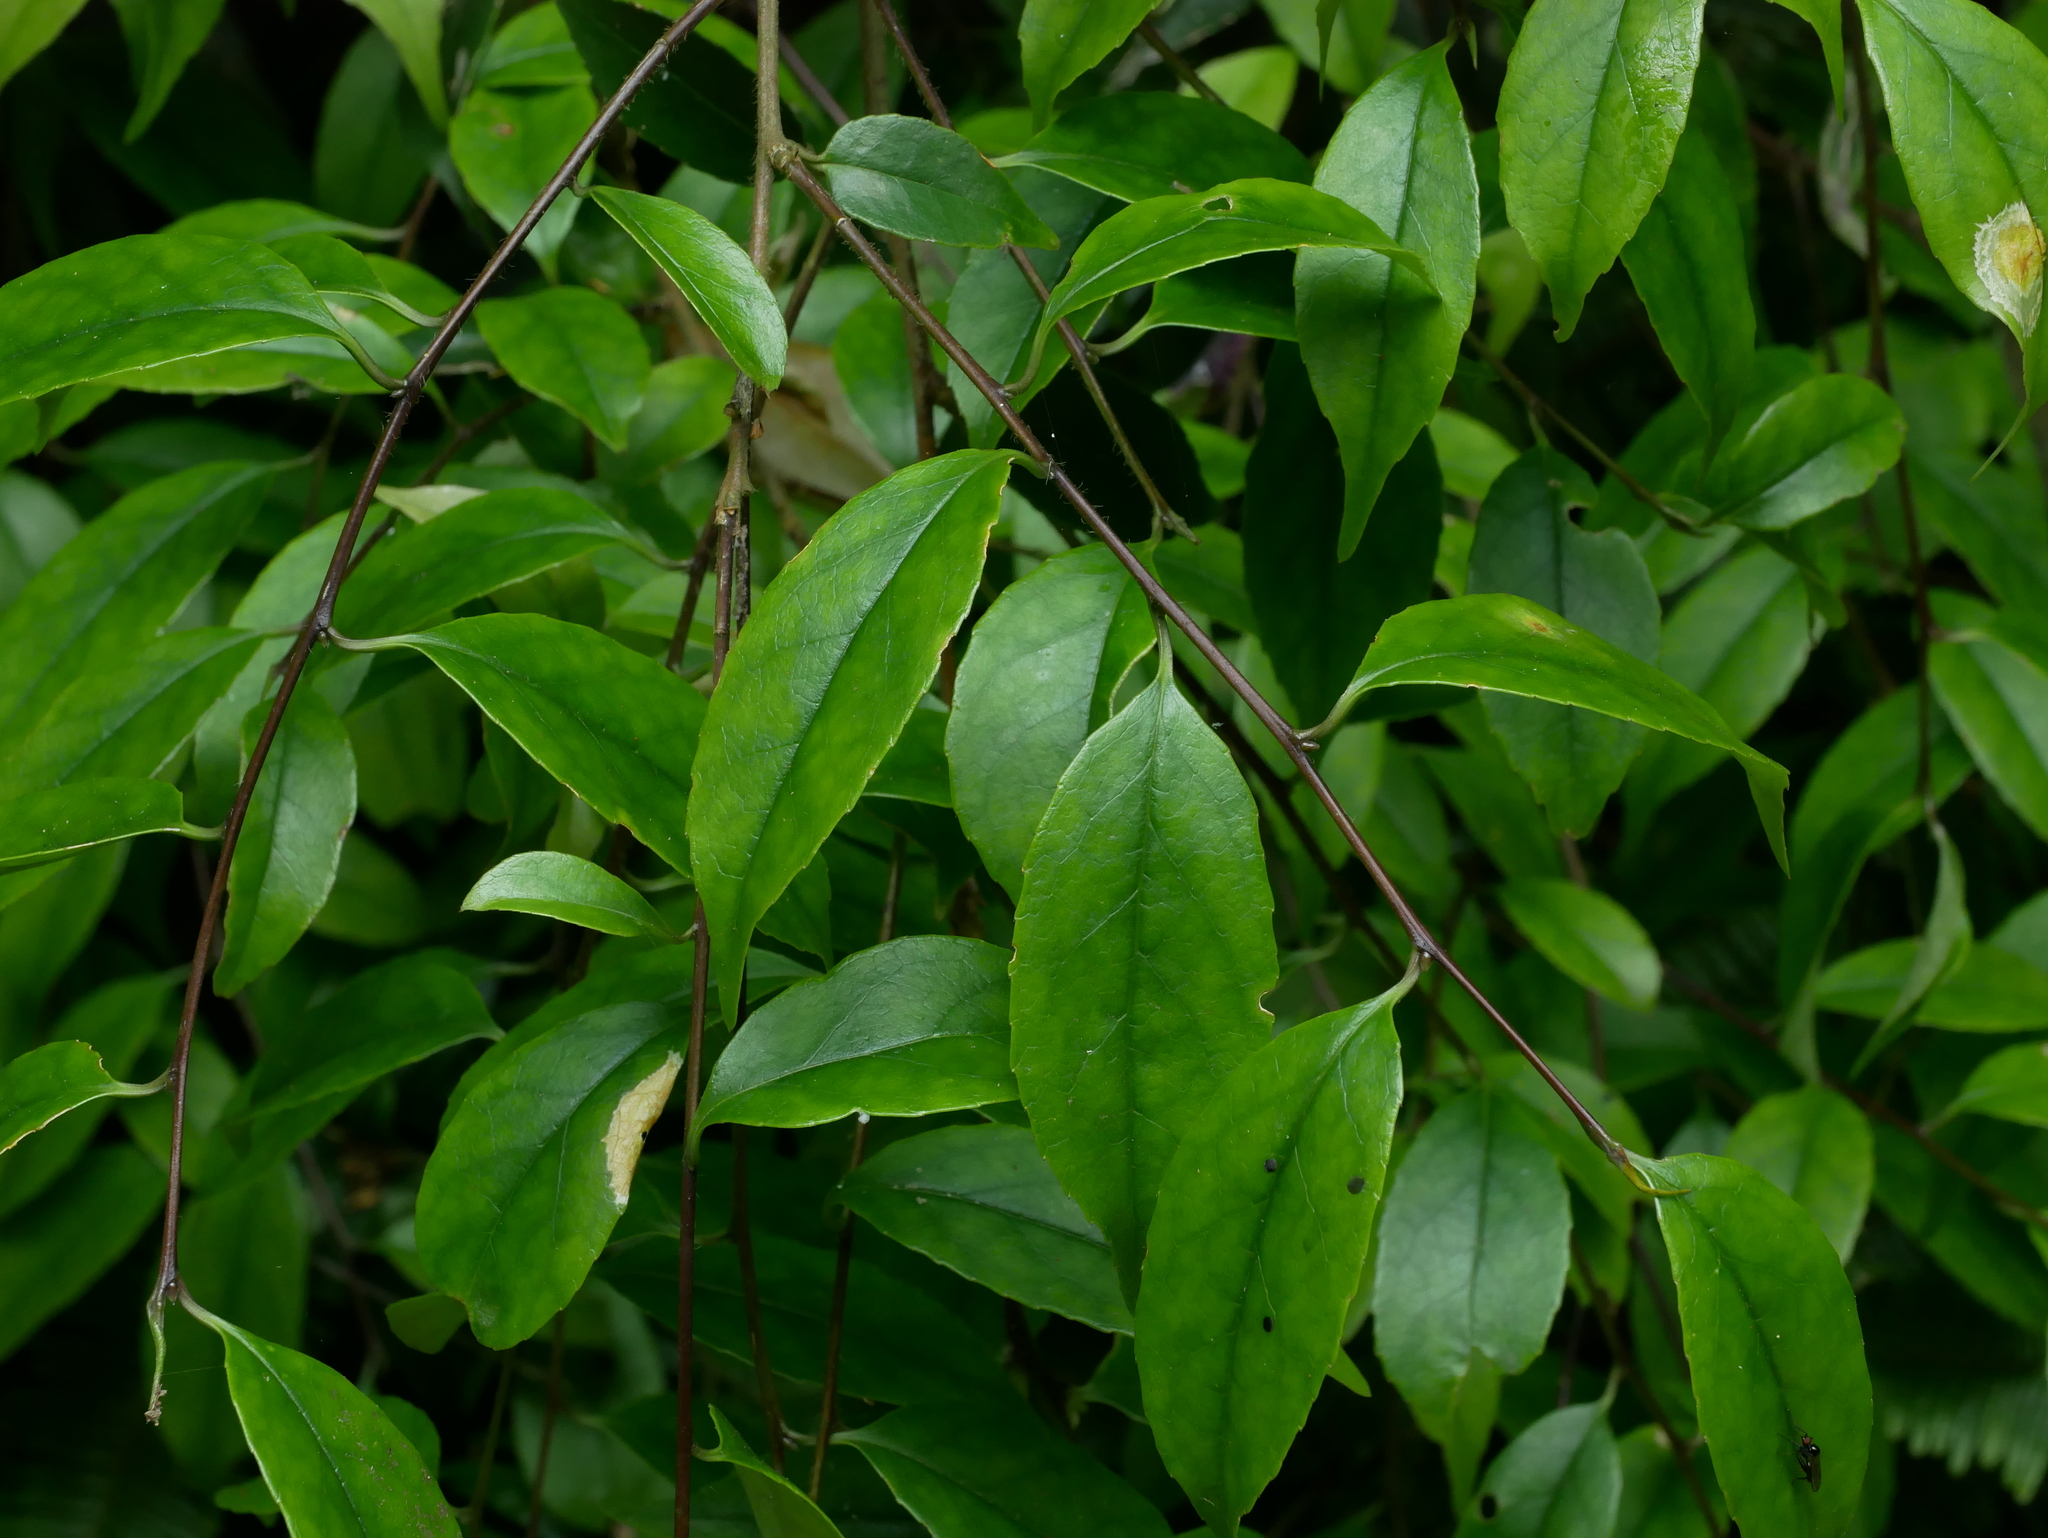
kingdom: Plantae
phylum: Tracheophyta
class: Magnoliopsida
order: Ericales
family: Symplocaceae
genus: Symplocos
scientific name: Symplocos sumuntia
